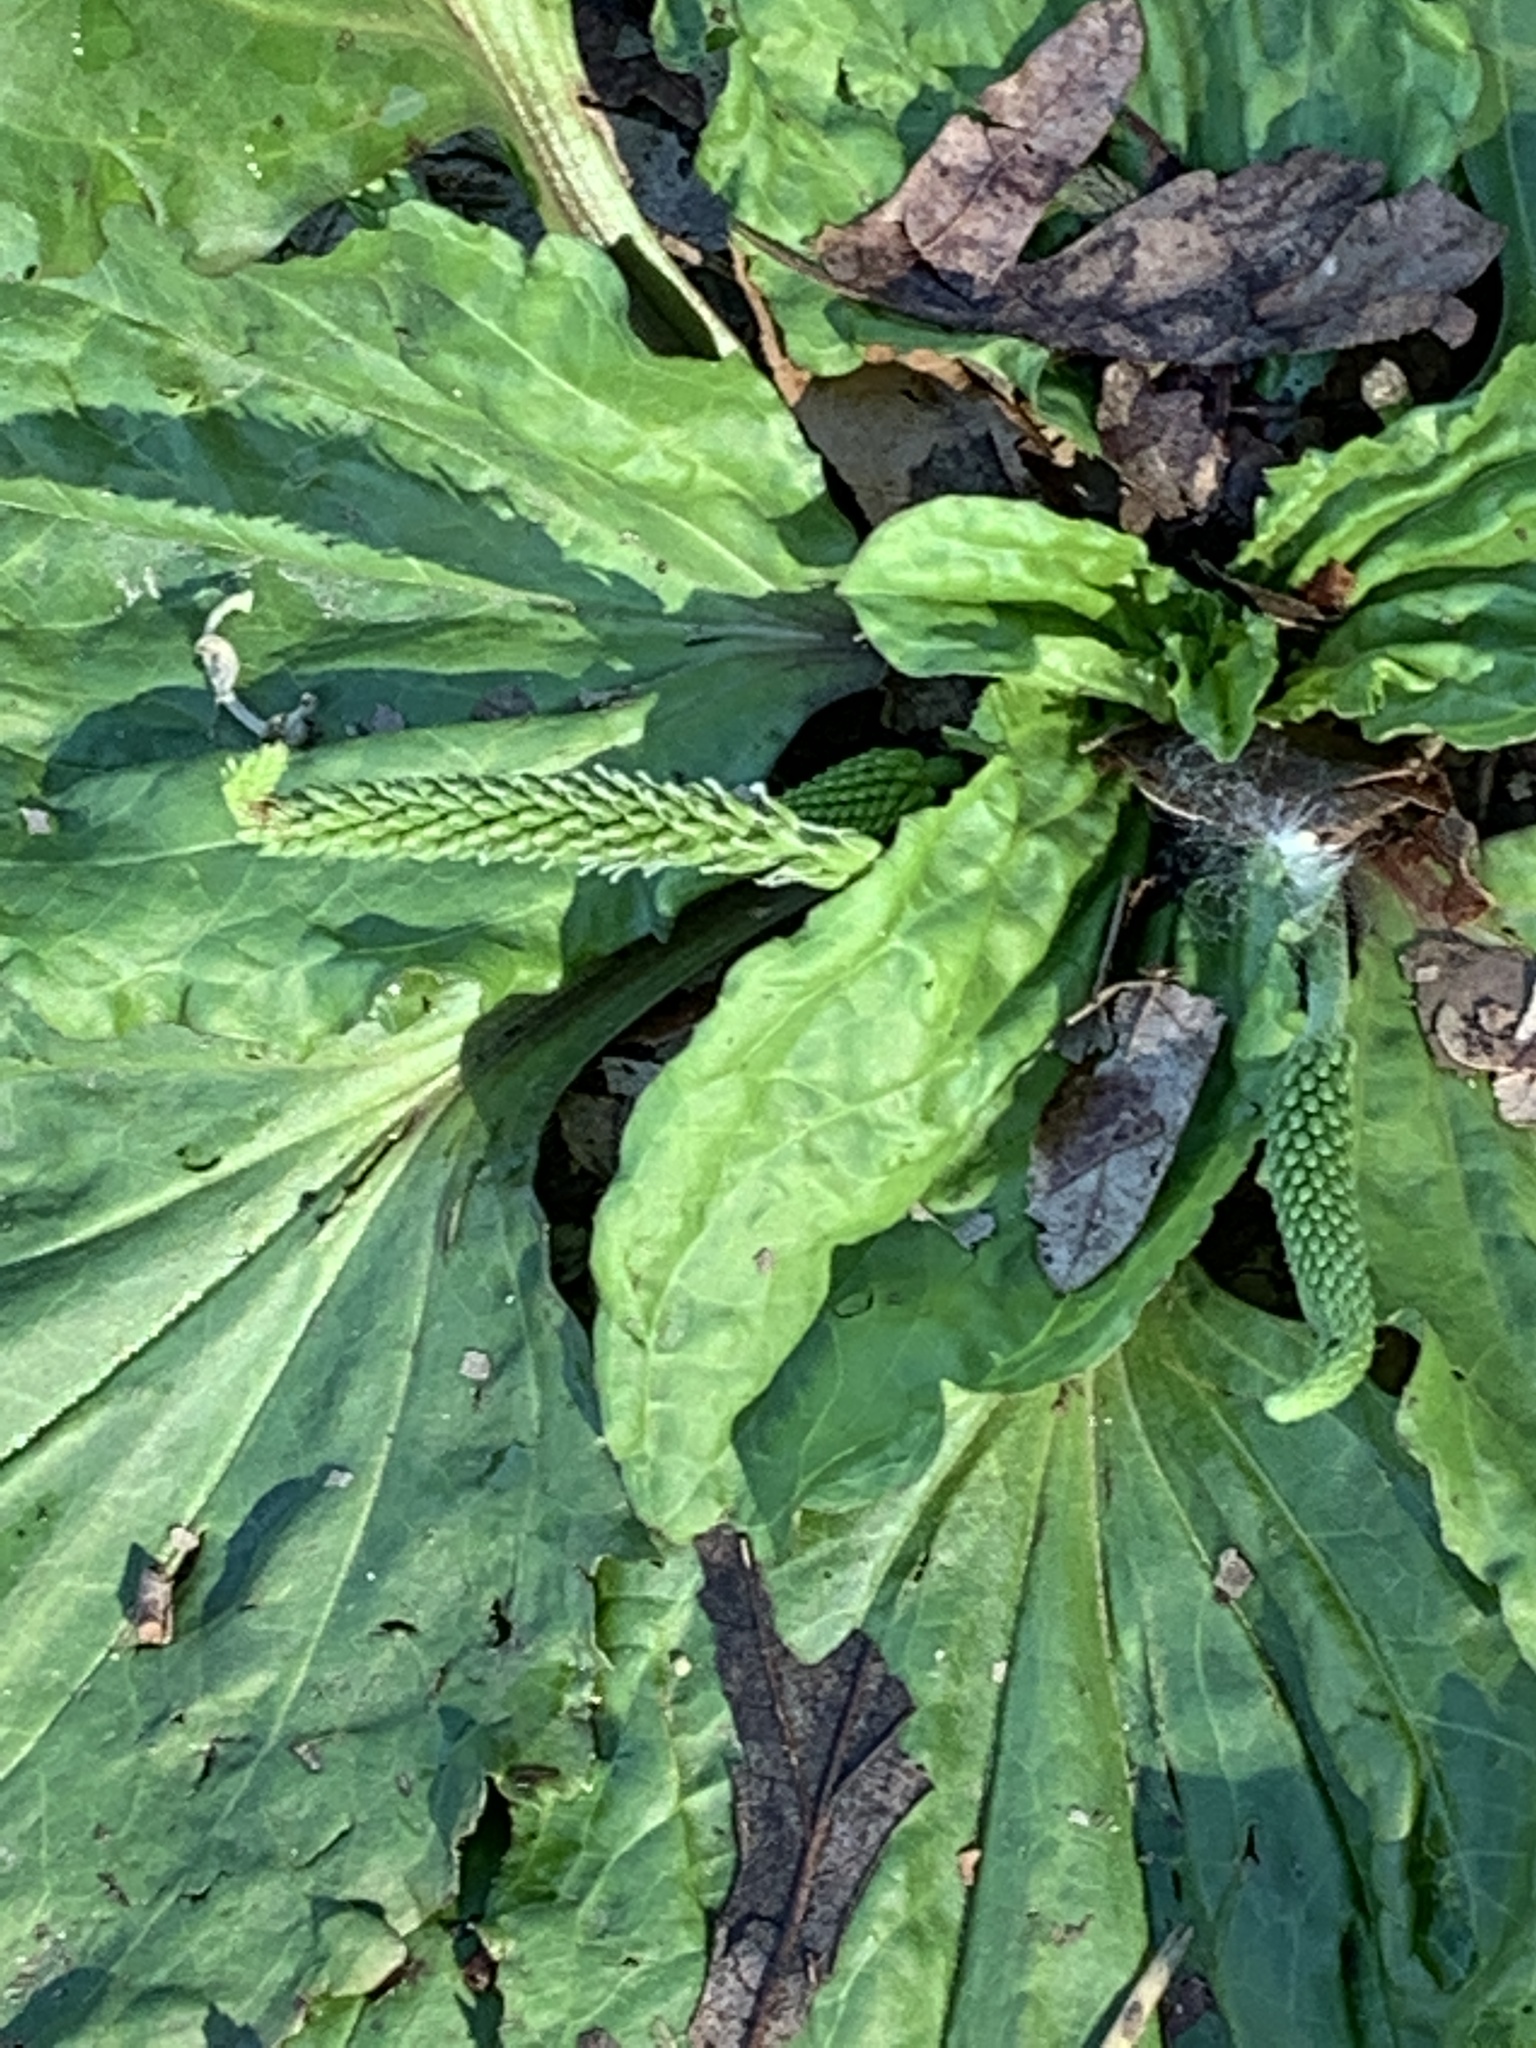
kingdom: Plantae
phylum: Tracheophyta
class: Magnoliopsida
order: Lamiales
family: Plantaginaceae
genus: Plantago
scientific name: Plantago rugelii
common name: American plantain
